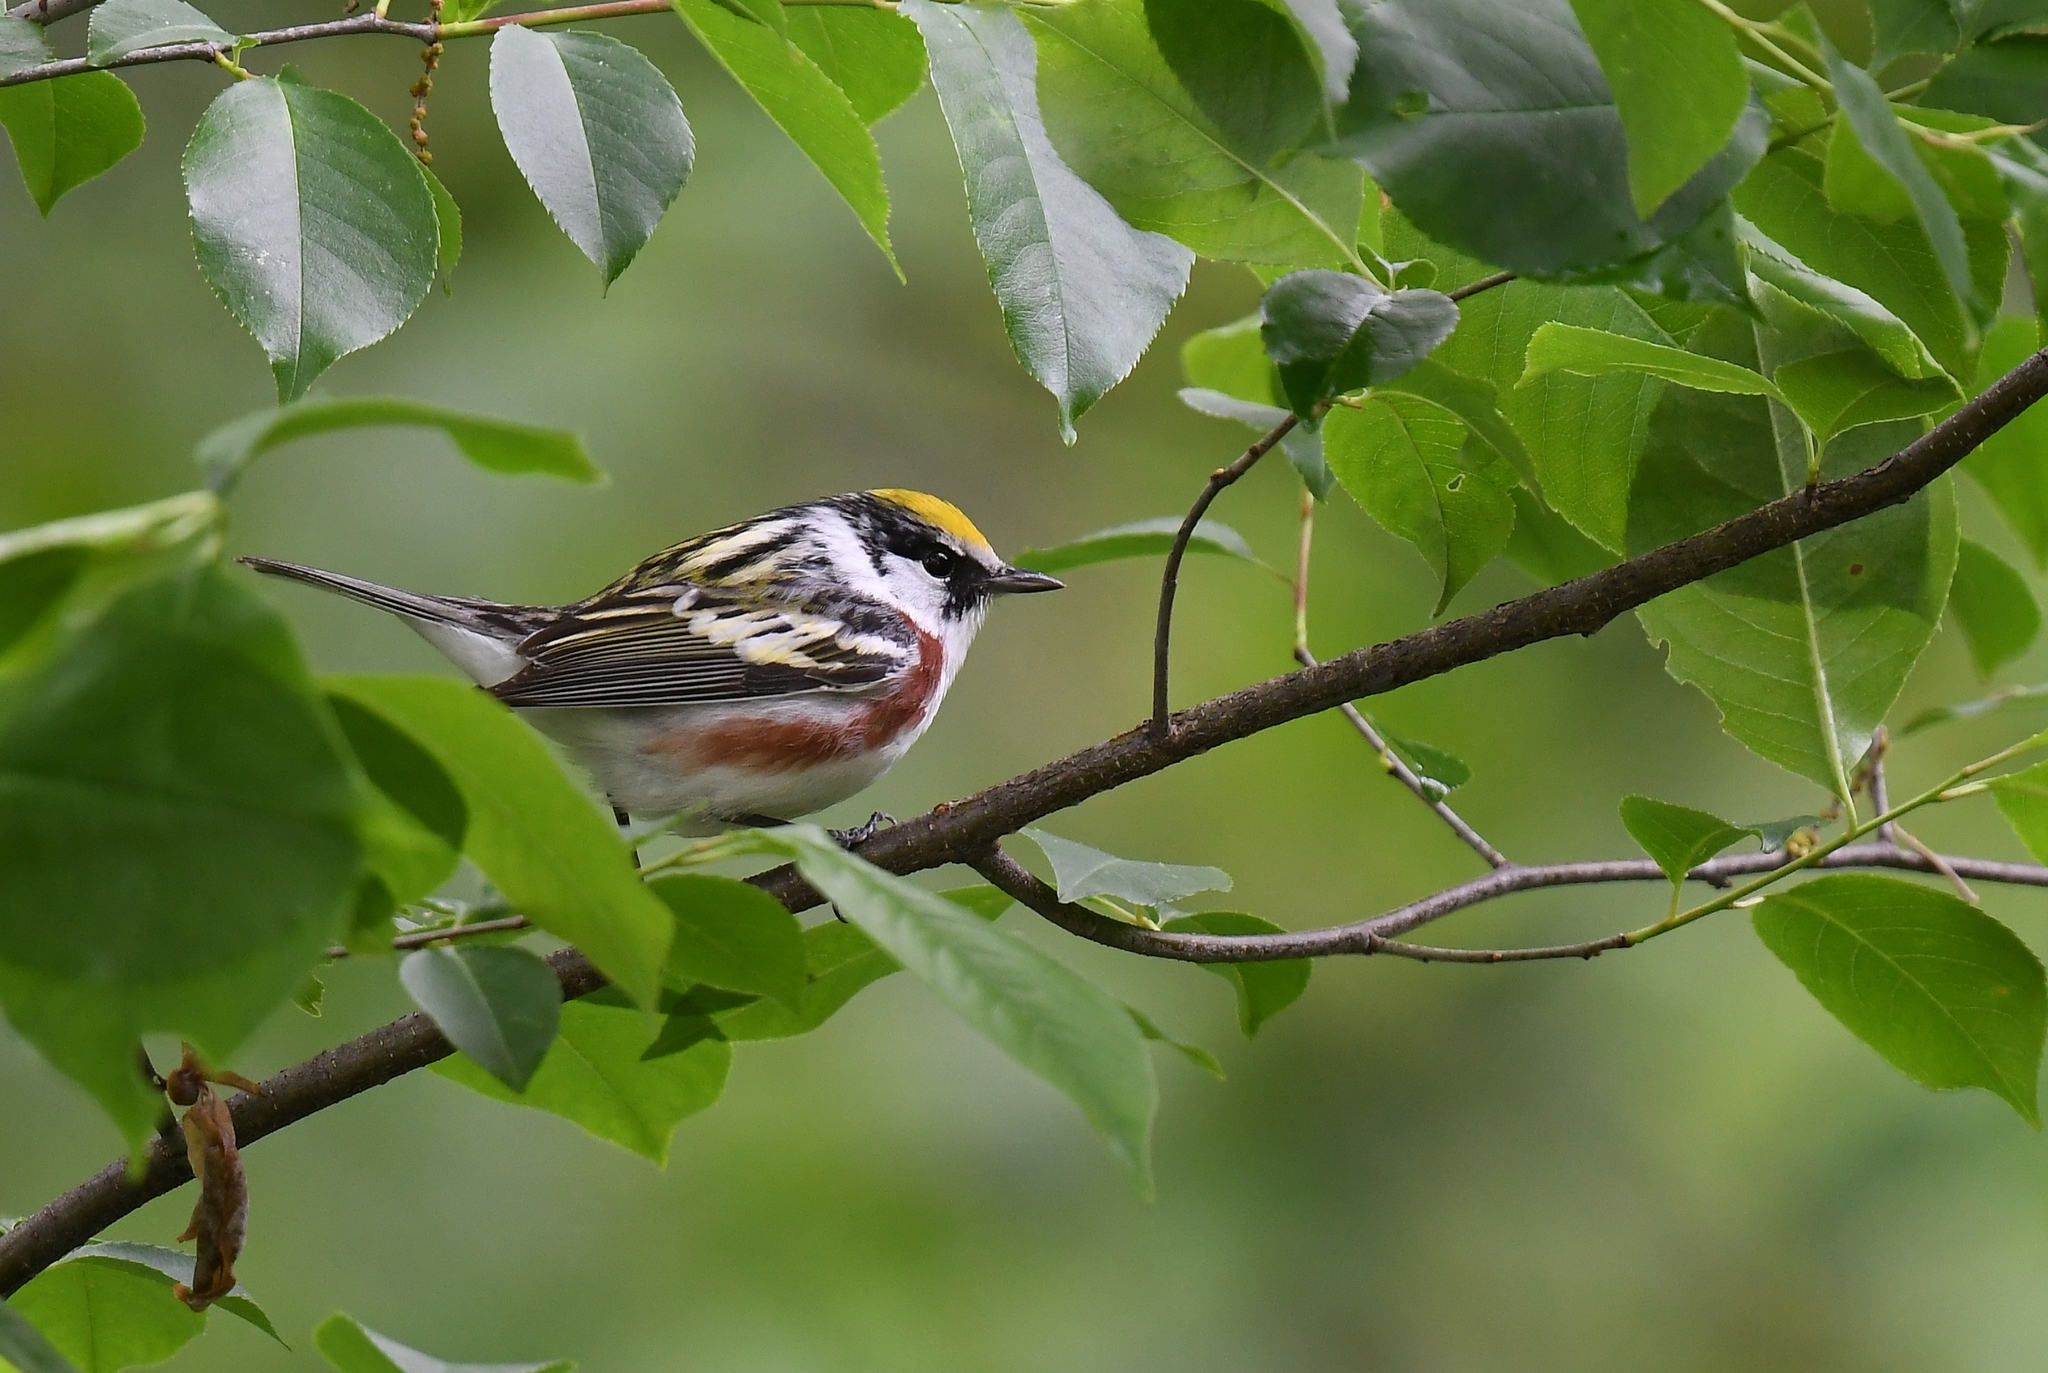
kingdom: Animalia
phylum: Chordata
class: Aves
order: Passeriformes
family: Parulidae
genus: Setophaga
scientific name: Setophaga pensylvanica
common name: Chestnut-sided warbler
